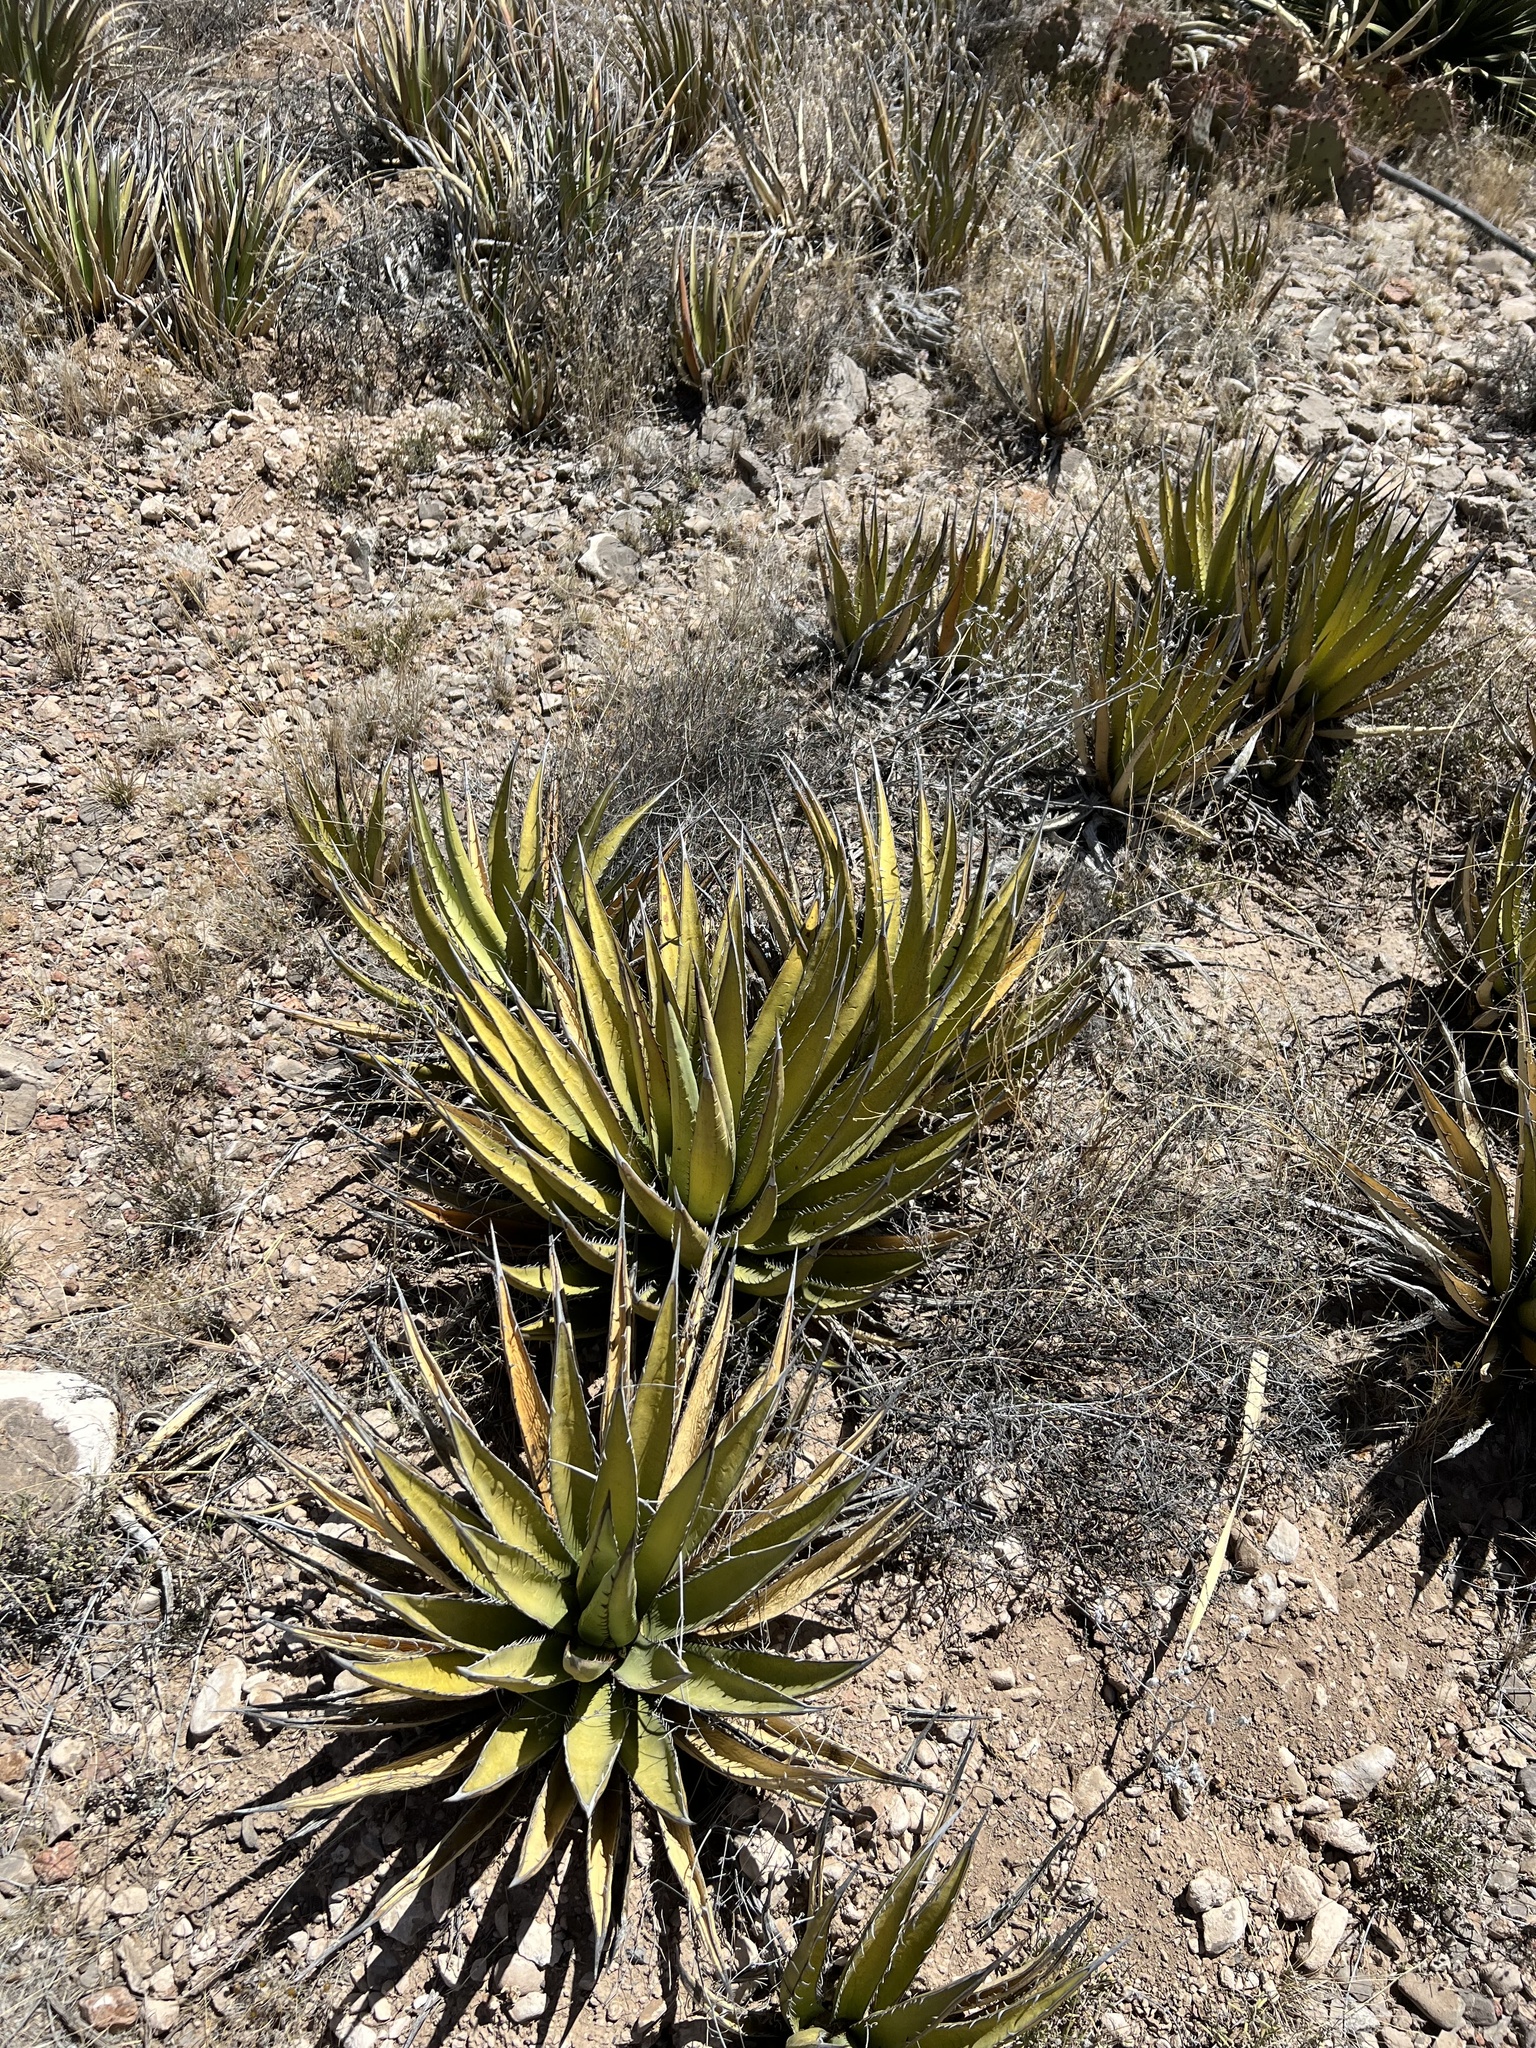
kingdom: Plantae
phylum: Tracheophyta
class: Liliopsida
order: Asparagales
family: Asparagaceae
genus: Agave
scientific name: Agave lechuguilla
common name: Lecheguilla agave
